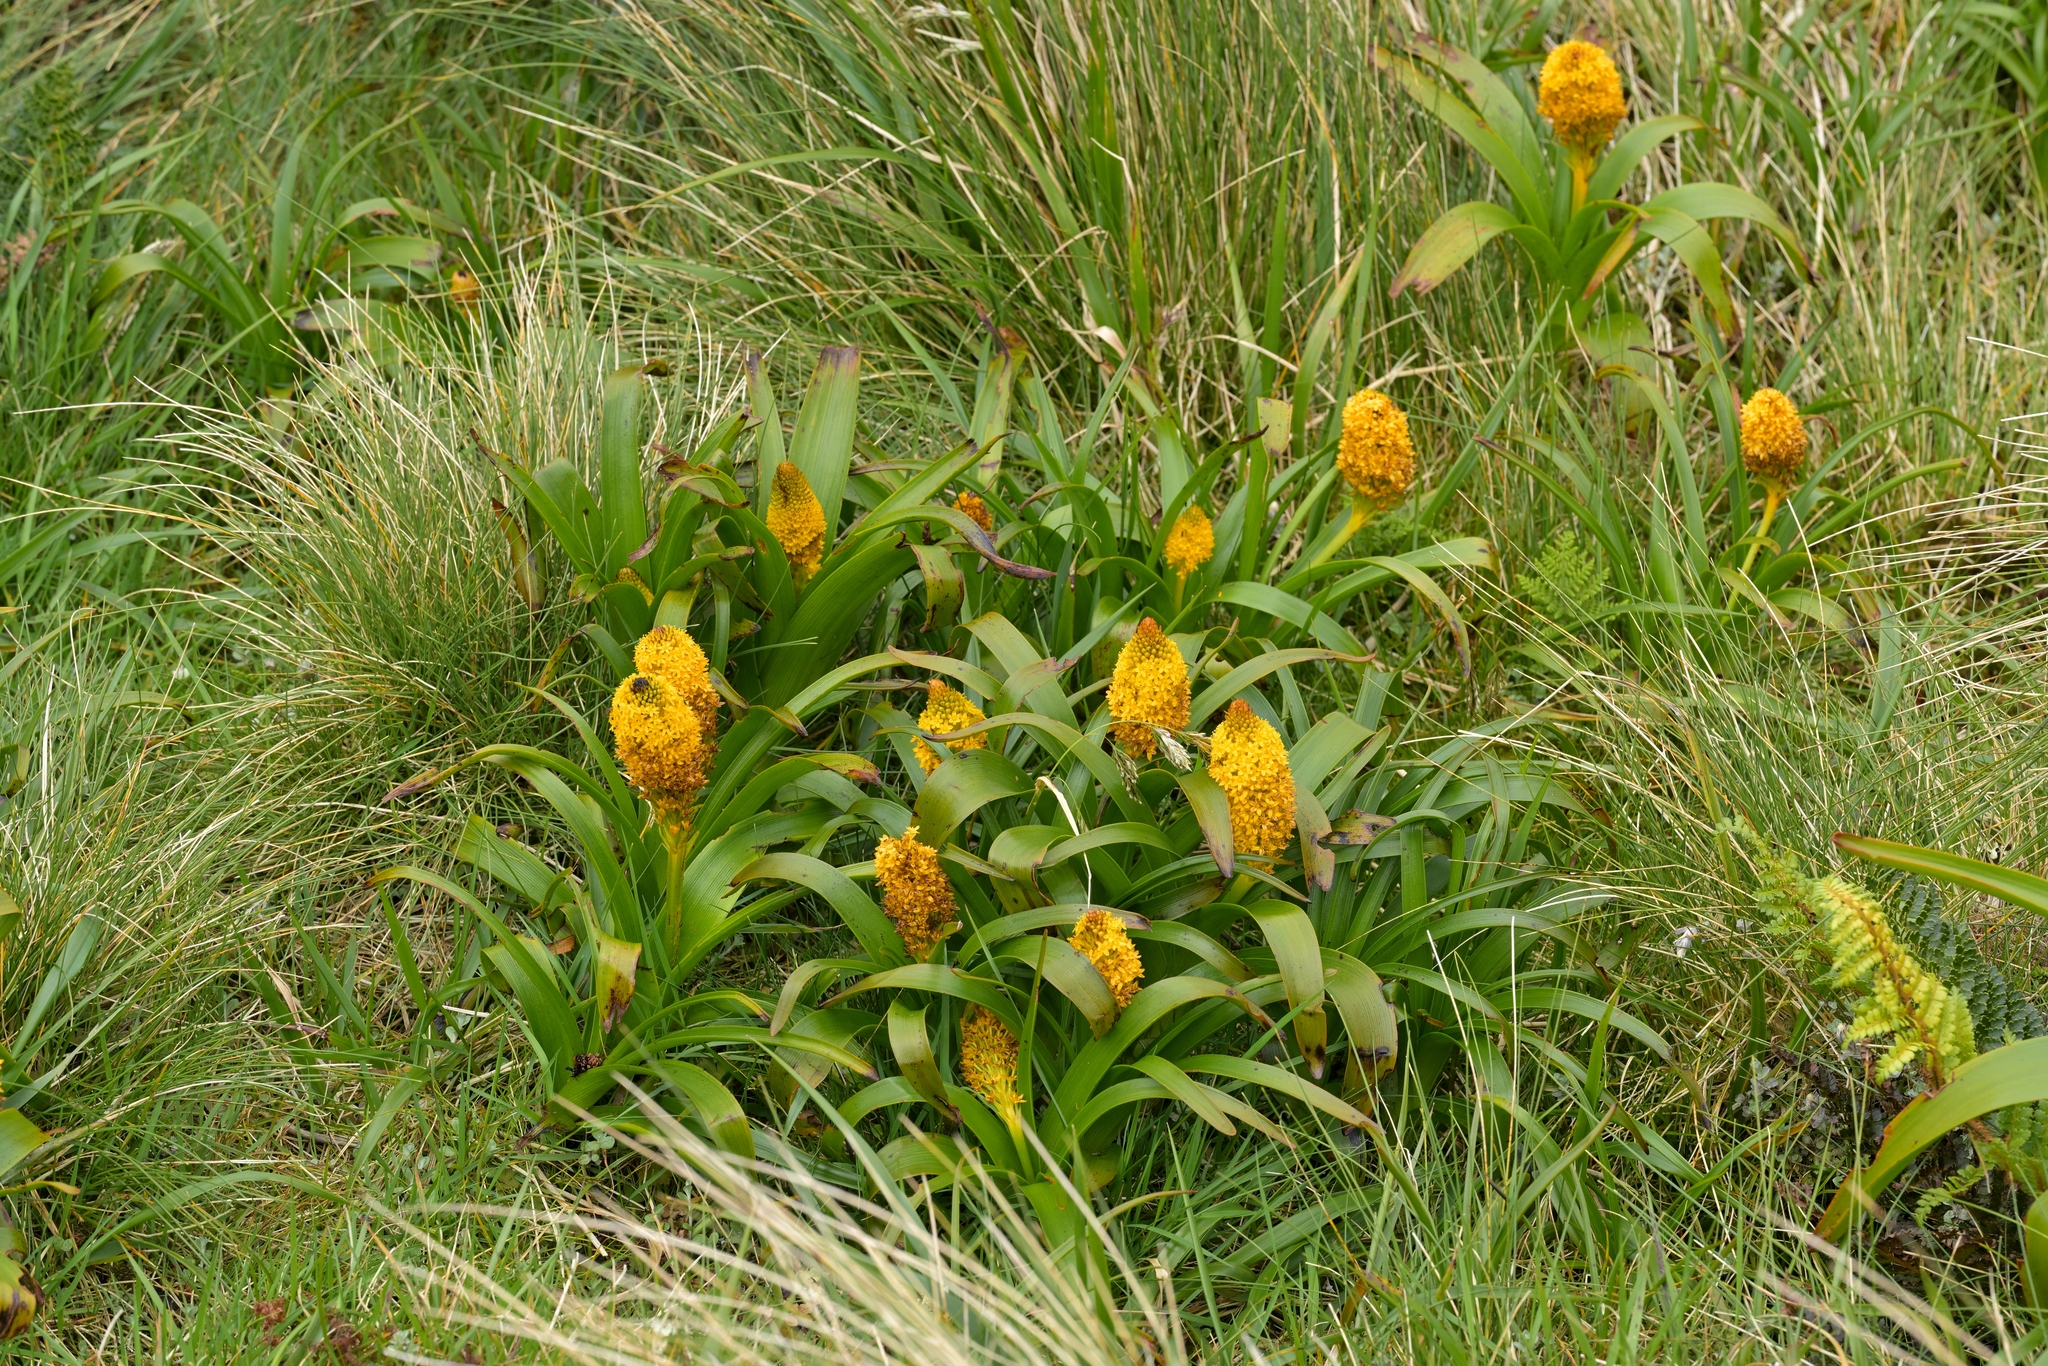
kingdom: Plantae
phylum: Tracheophyta
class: Liliopsida
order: Asparagales
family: Asphodelaceae
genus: Bulbinella
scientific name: Bulbinella rossii
